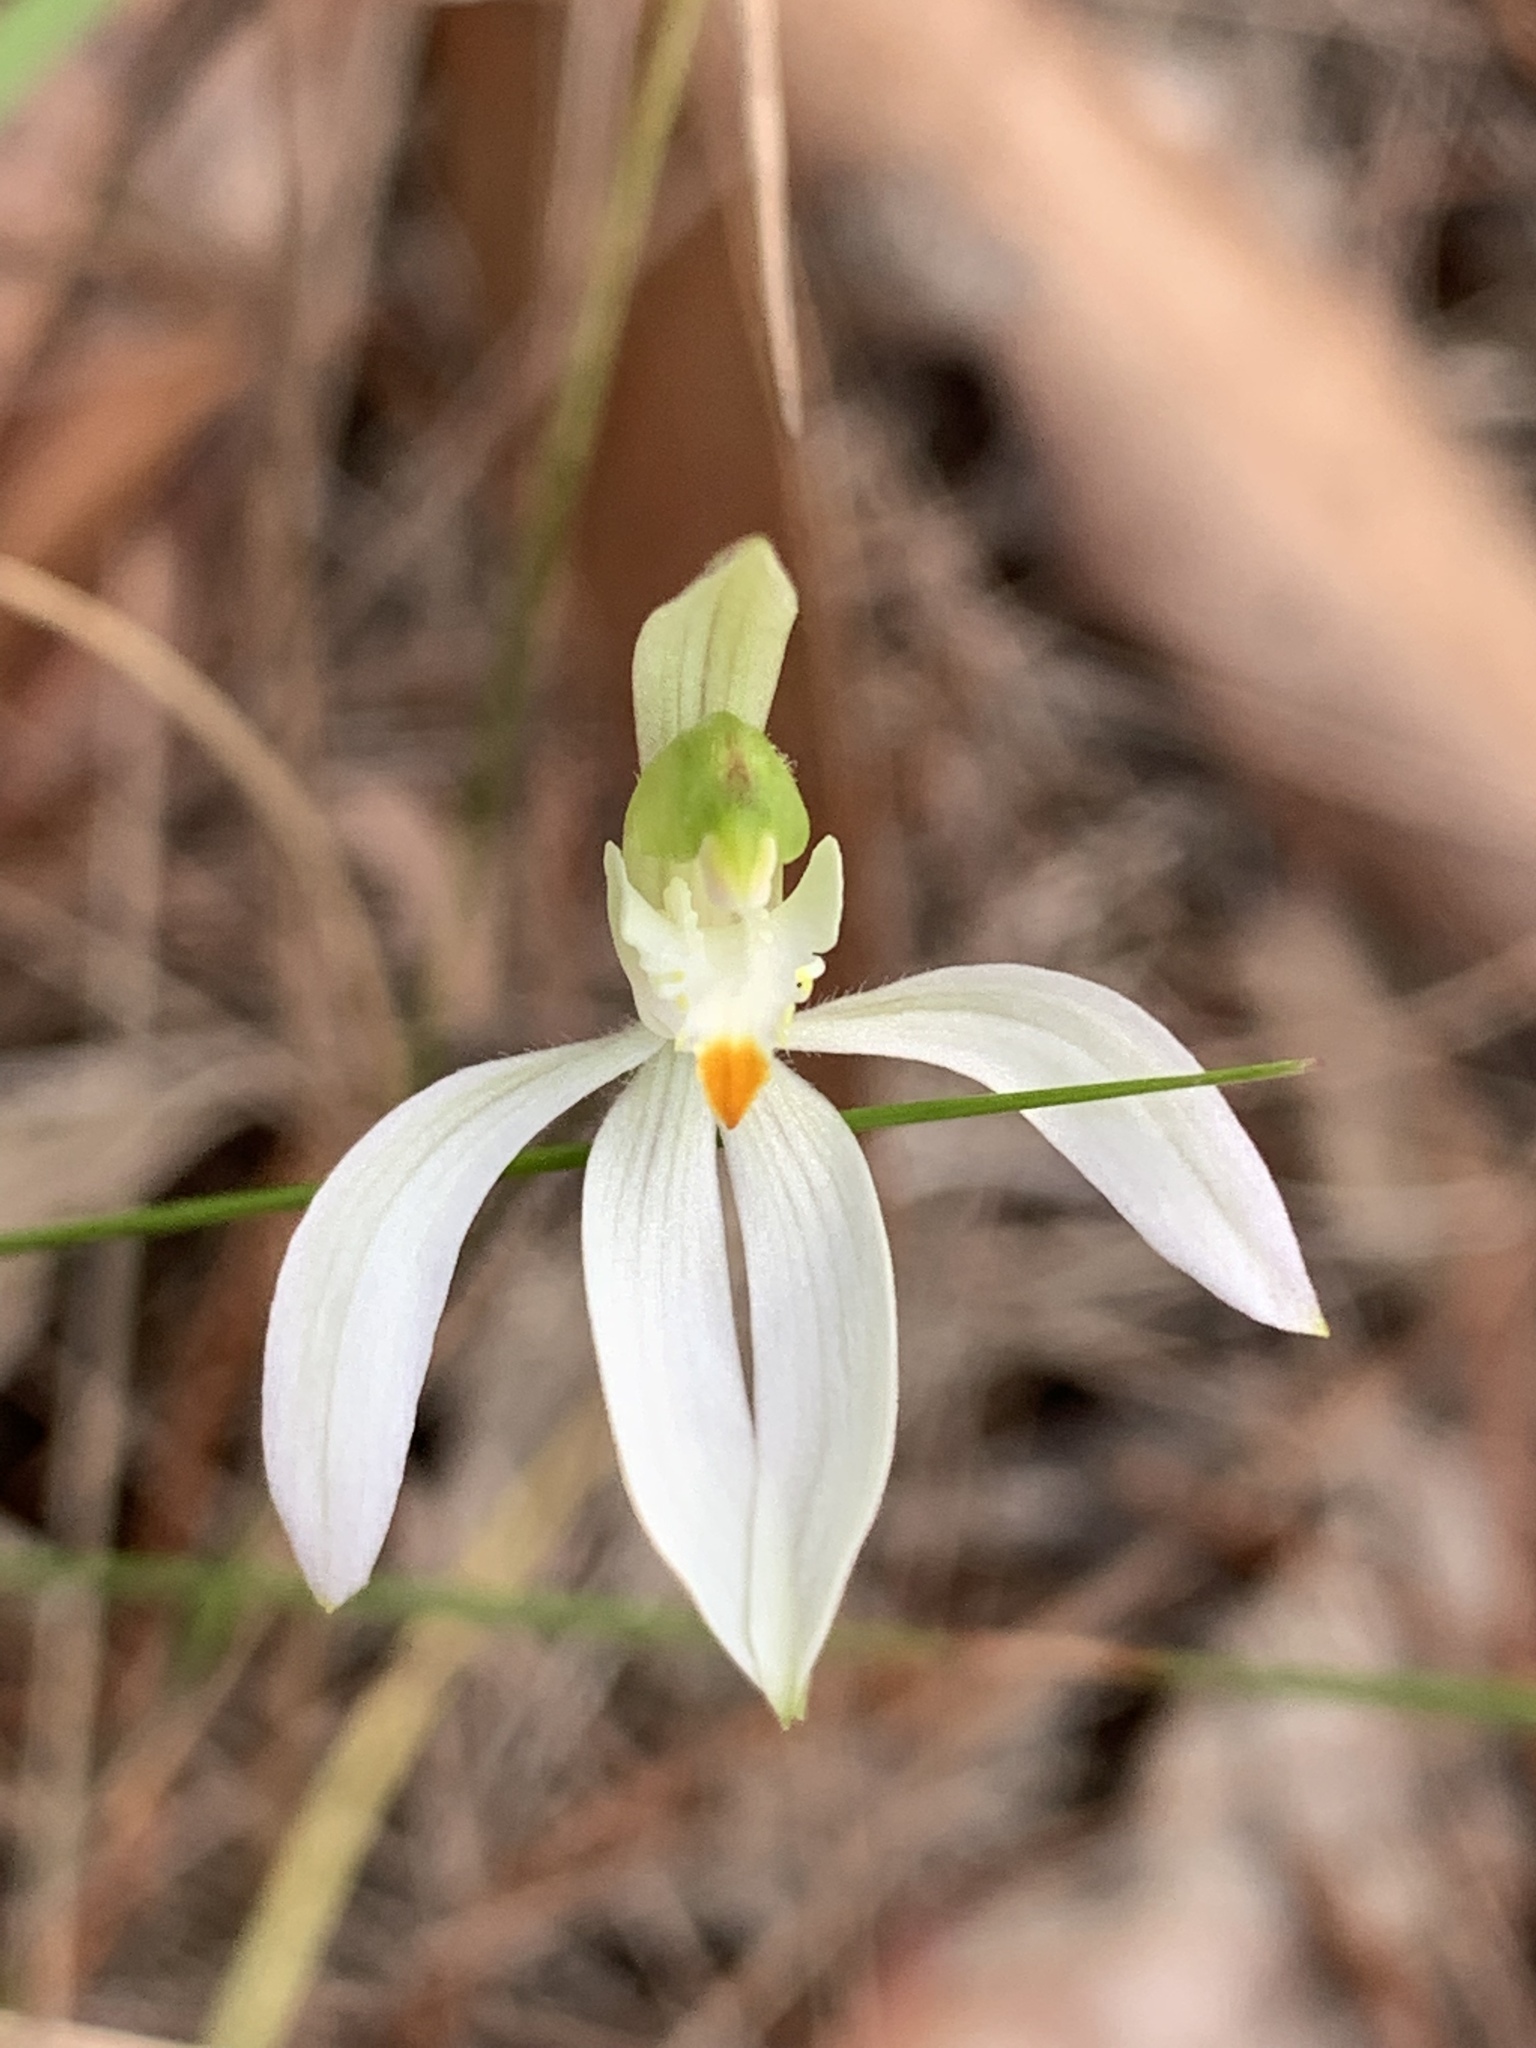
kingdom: Plantae
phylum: Tracheophyta
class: Liliopsida
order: Asparagales
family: Orchidaceae
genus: Caladenia
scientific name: Caladenia catenata
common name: White caladenia
